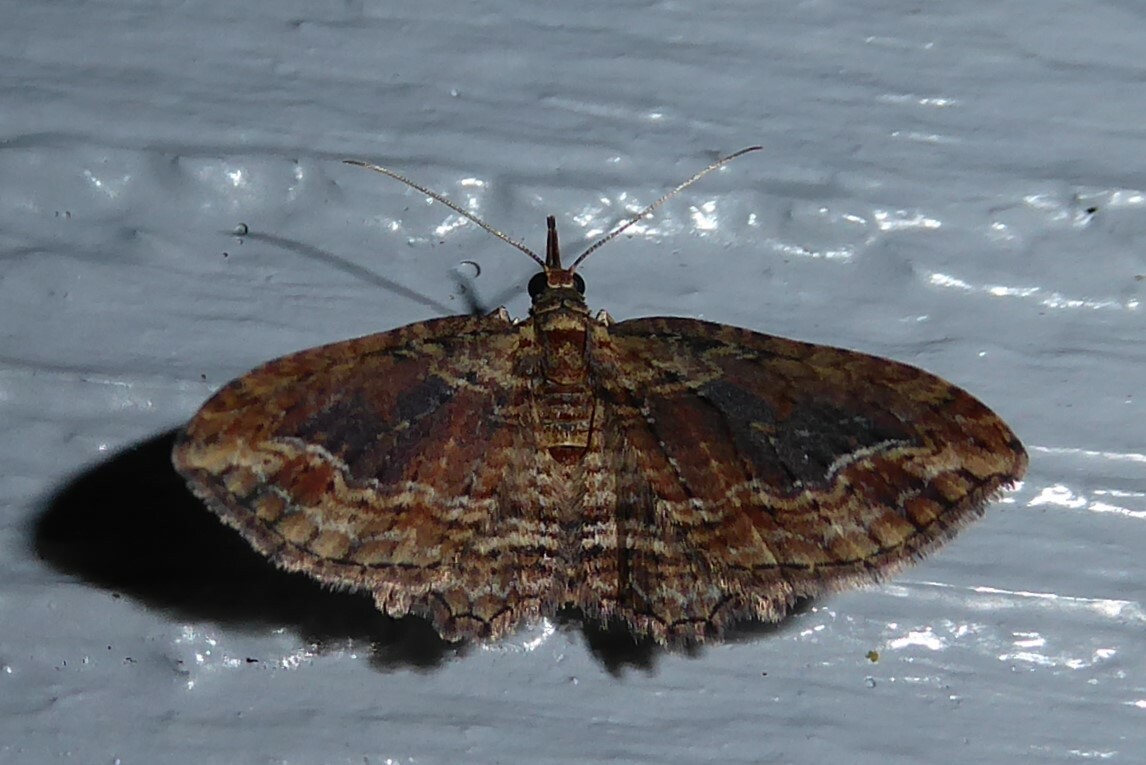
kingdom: Animalia
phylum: Arthropoda
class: Insecta
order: Lepidoptera
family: Geometridae
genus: Chloroclystis
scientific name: Chloroclystis filata
